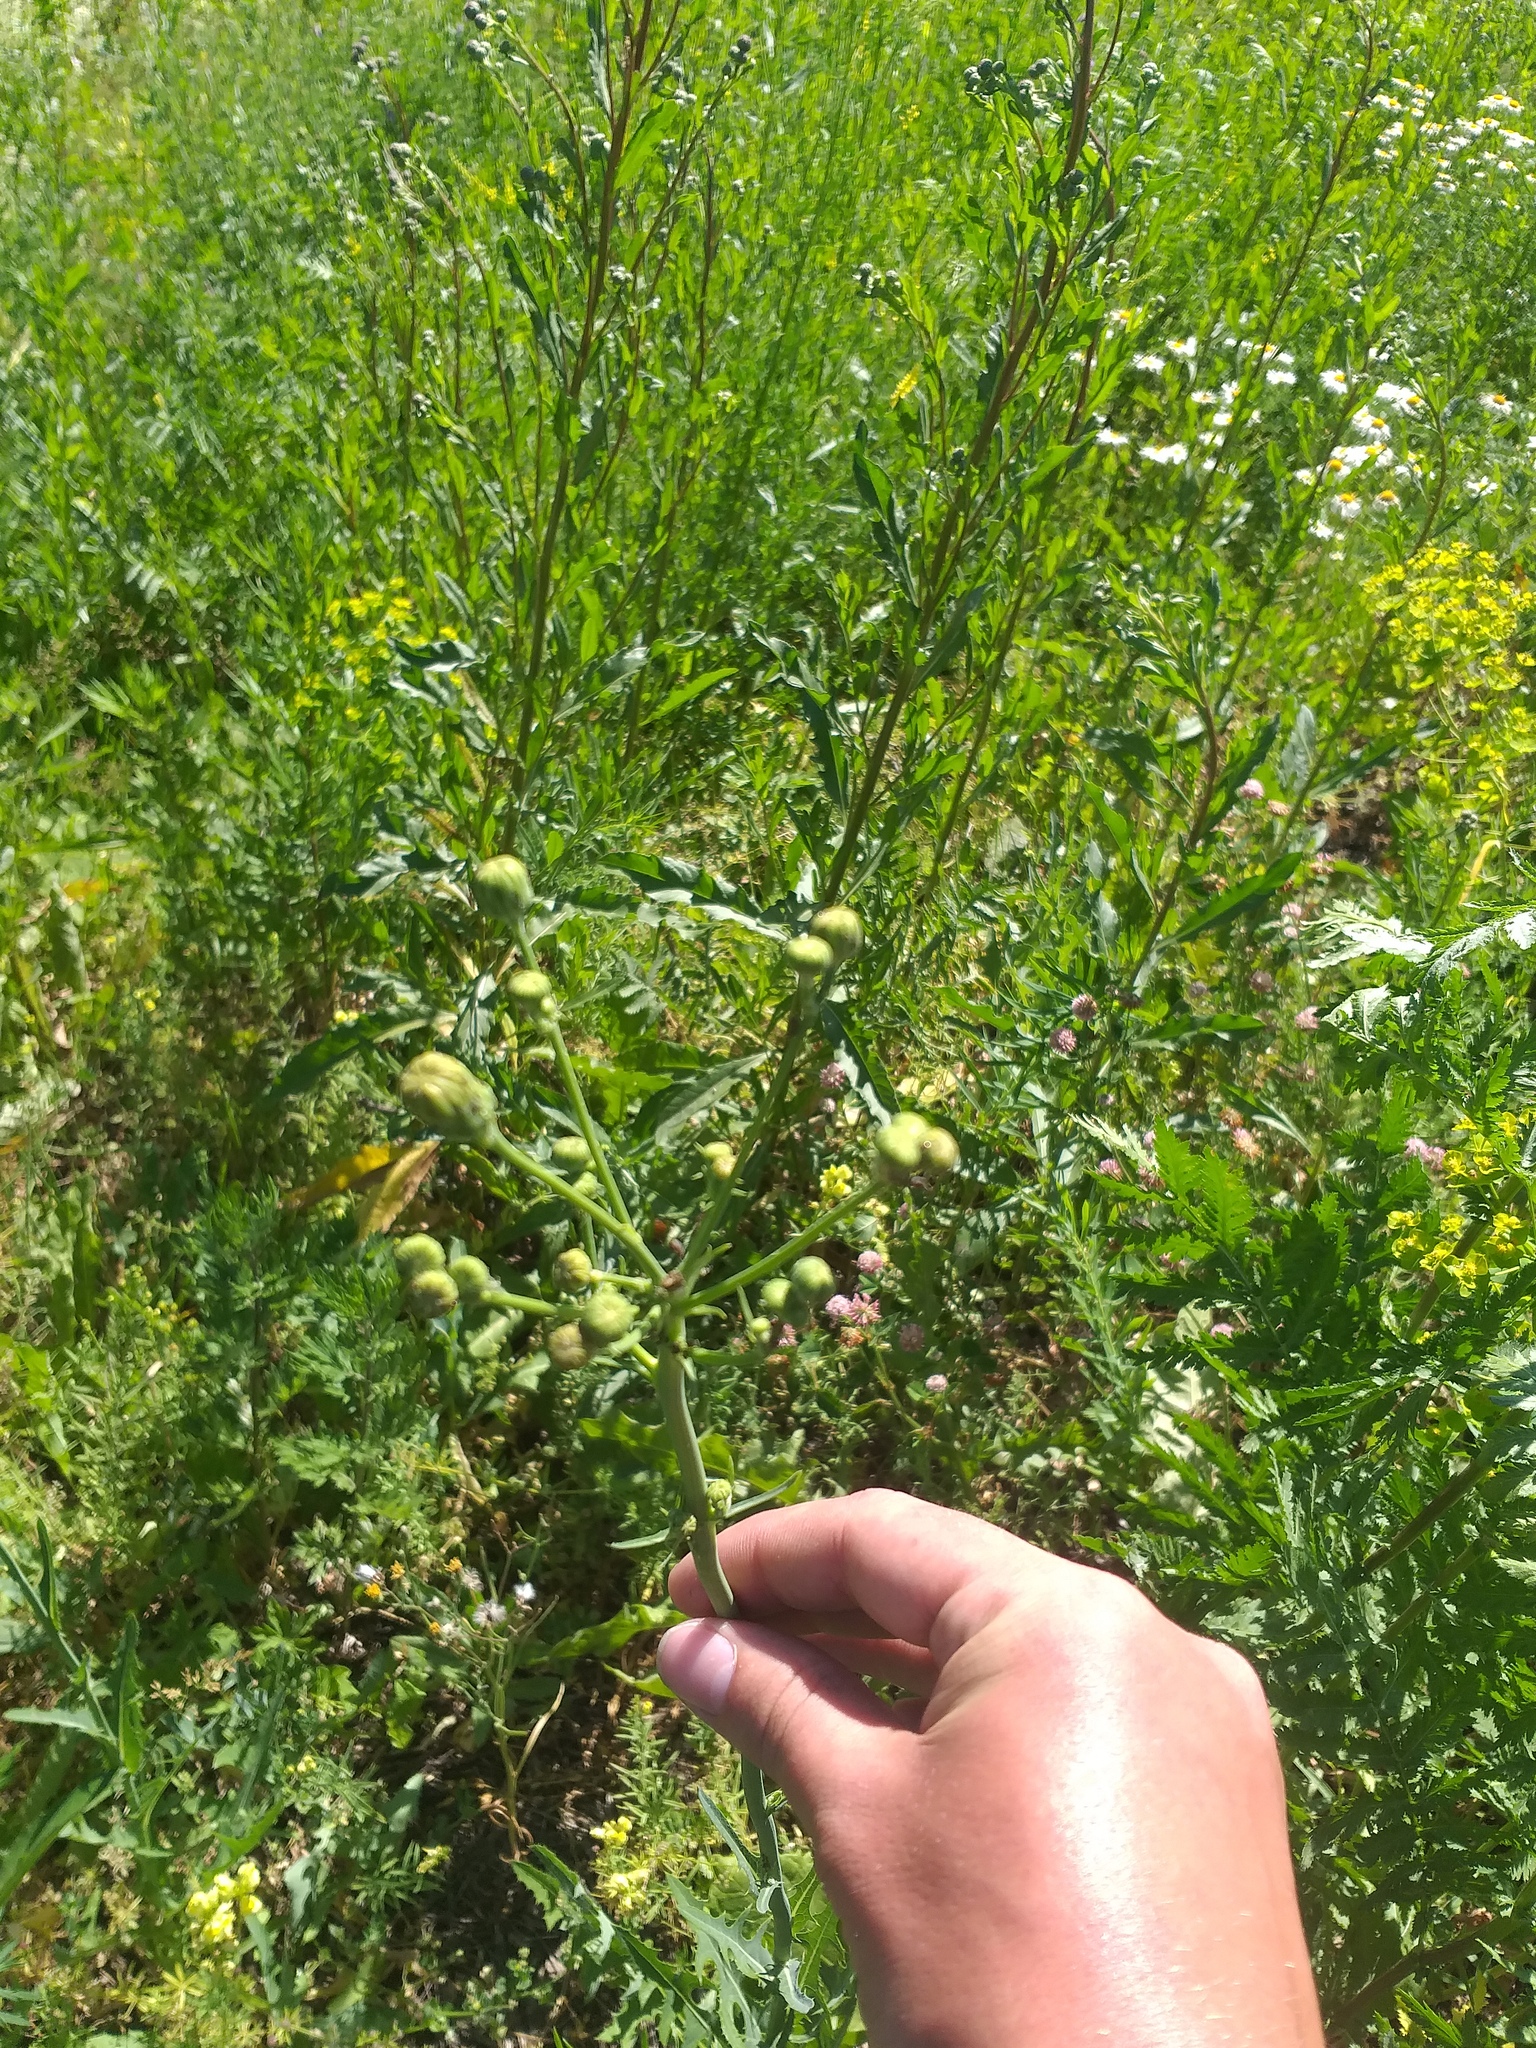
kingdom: Plantae
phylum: Tracheophyta
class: Magnoliopsida
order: Asterales
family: Asteraceae
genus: Sonchus
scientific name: Sonchus arvensis
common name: Perennial sow-thistle
